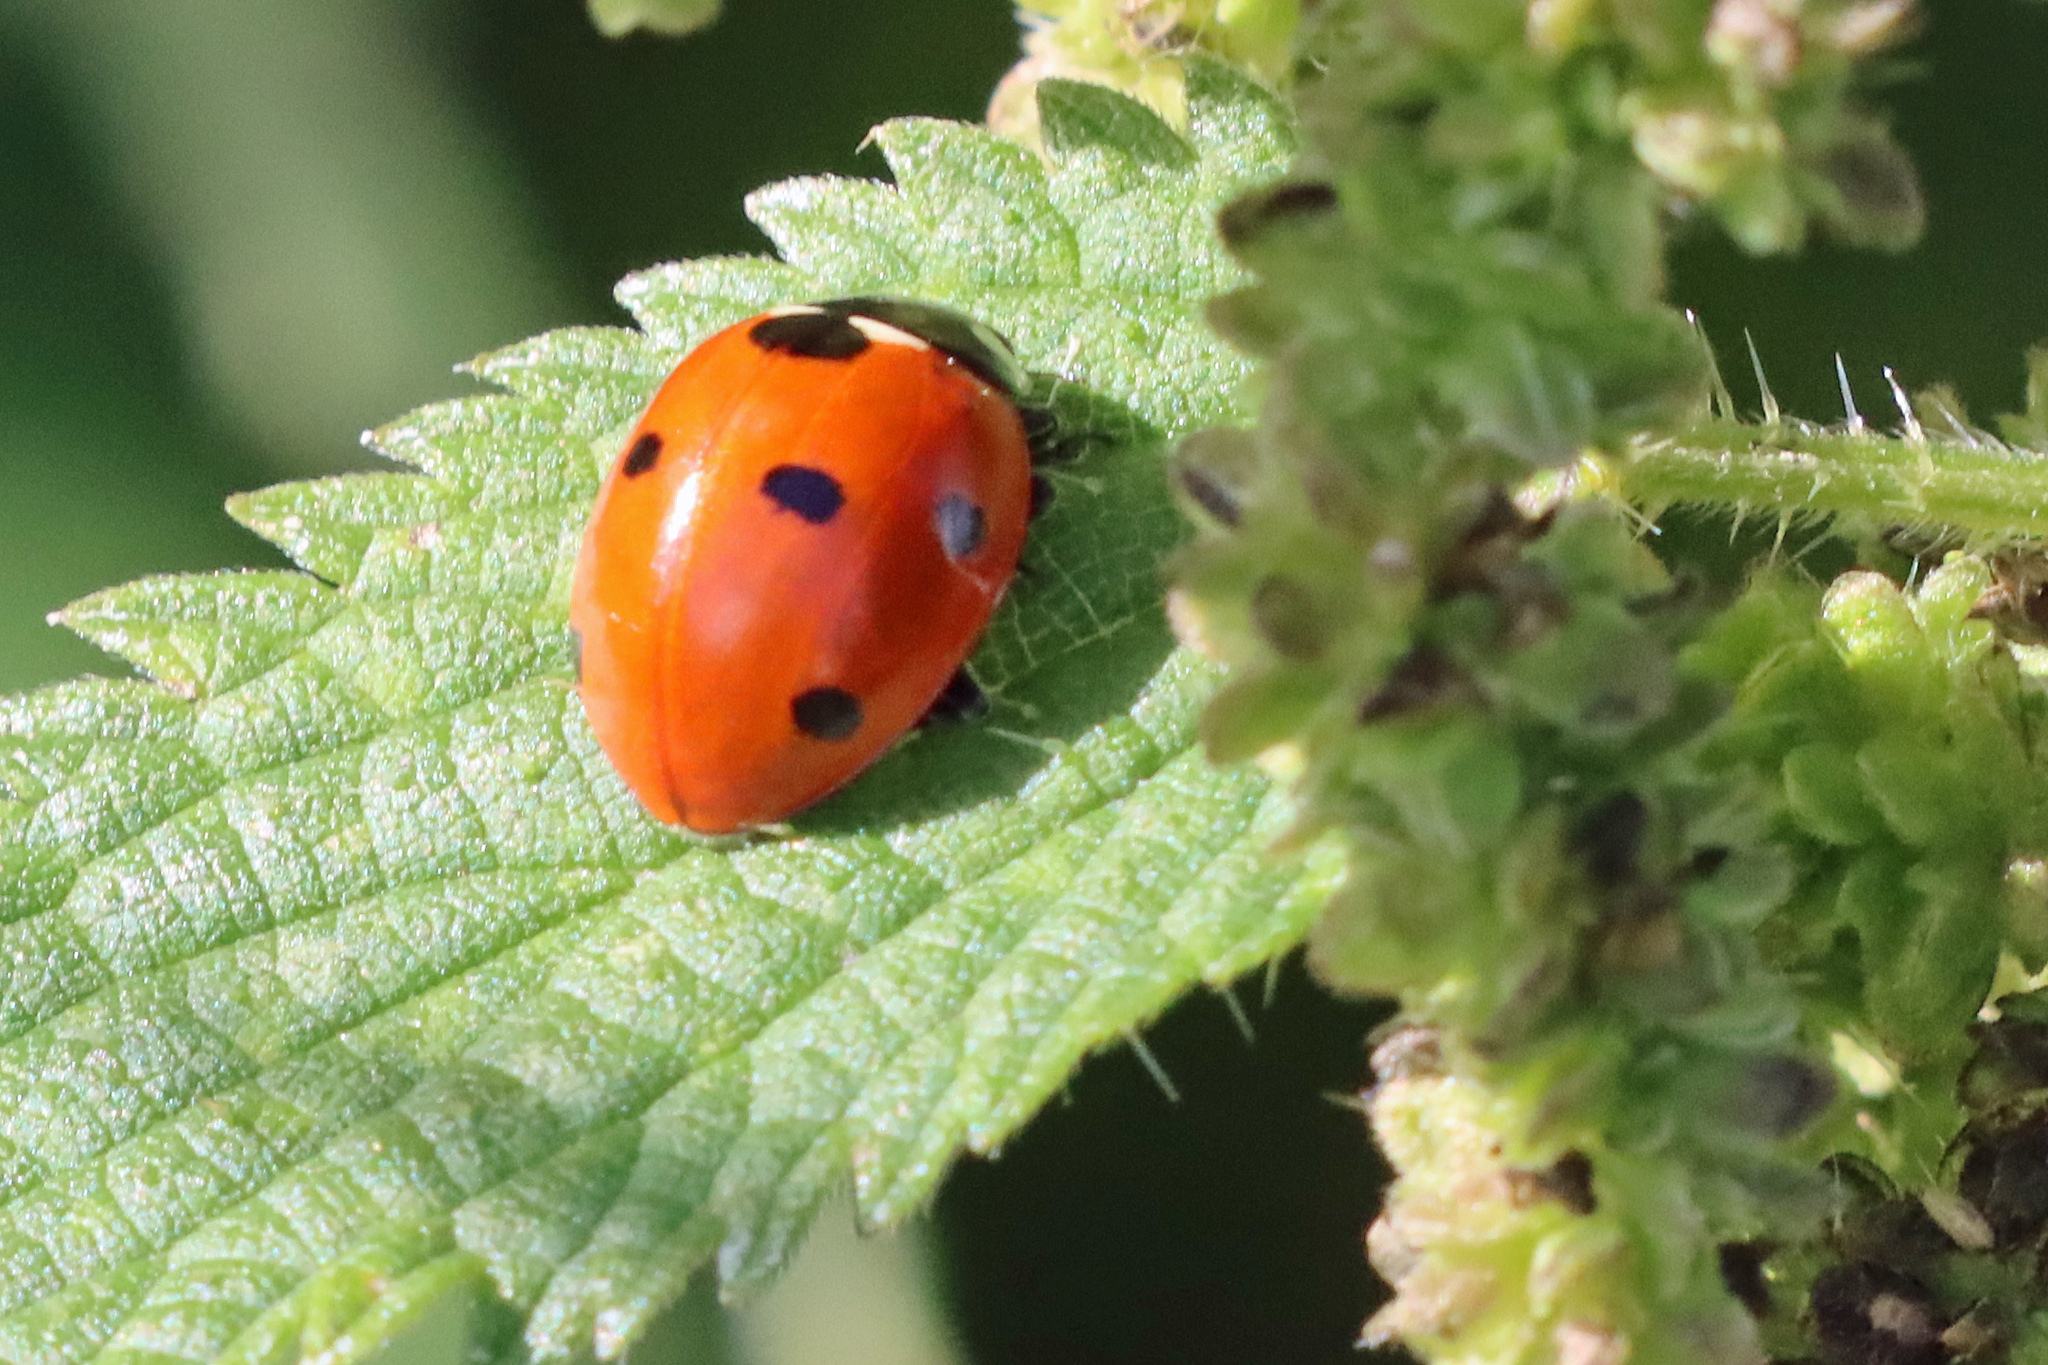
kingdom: Animalia
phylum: Arthropoda
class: Insecta
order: Coleoptera
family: Coccinellidae
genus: Coccinella
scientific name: Coccinella septempunctata
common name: Sevenspotted lady beetle
